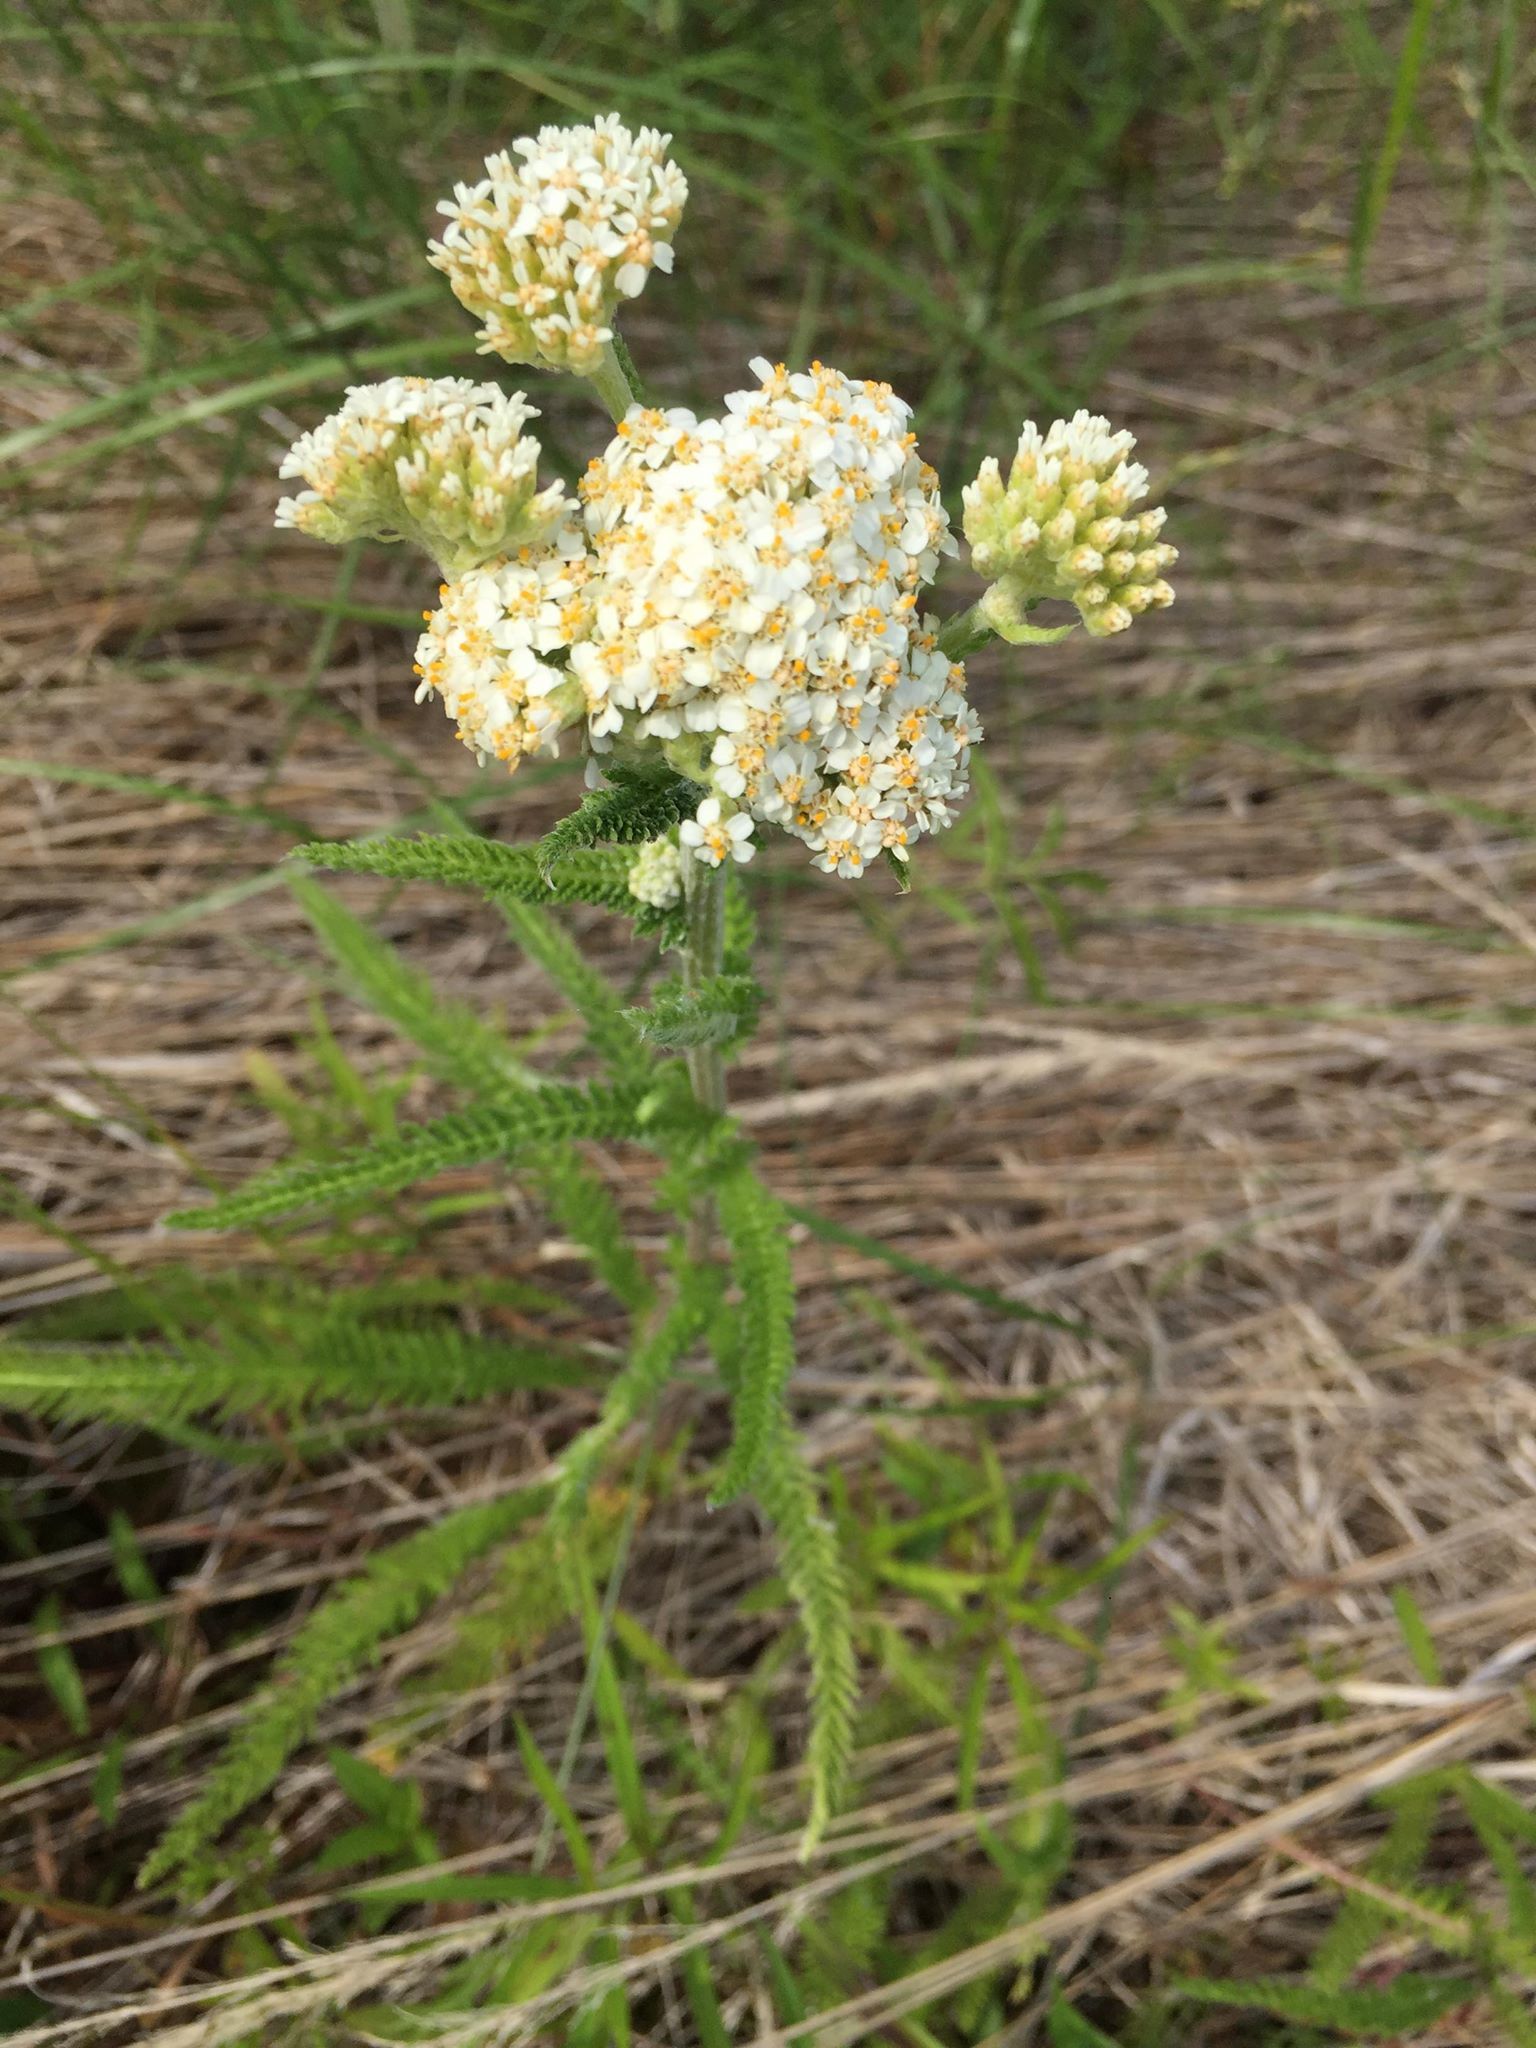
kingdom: Plantae
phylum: Tracheophyta
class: Magnoliopsida
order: Asterales
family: Asteraceae
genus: Achillea
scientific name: Achillea millefolium
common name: Yarrow
